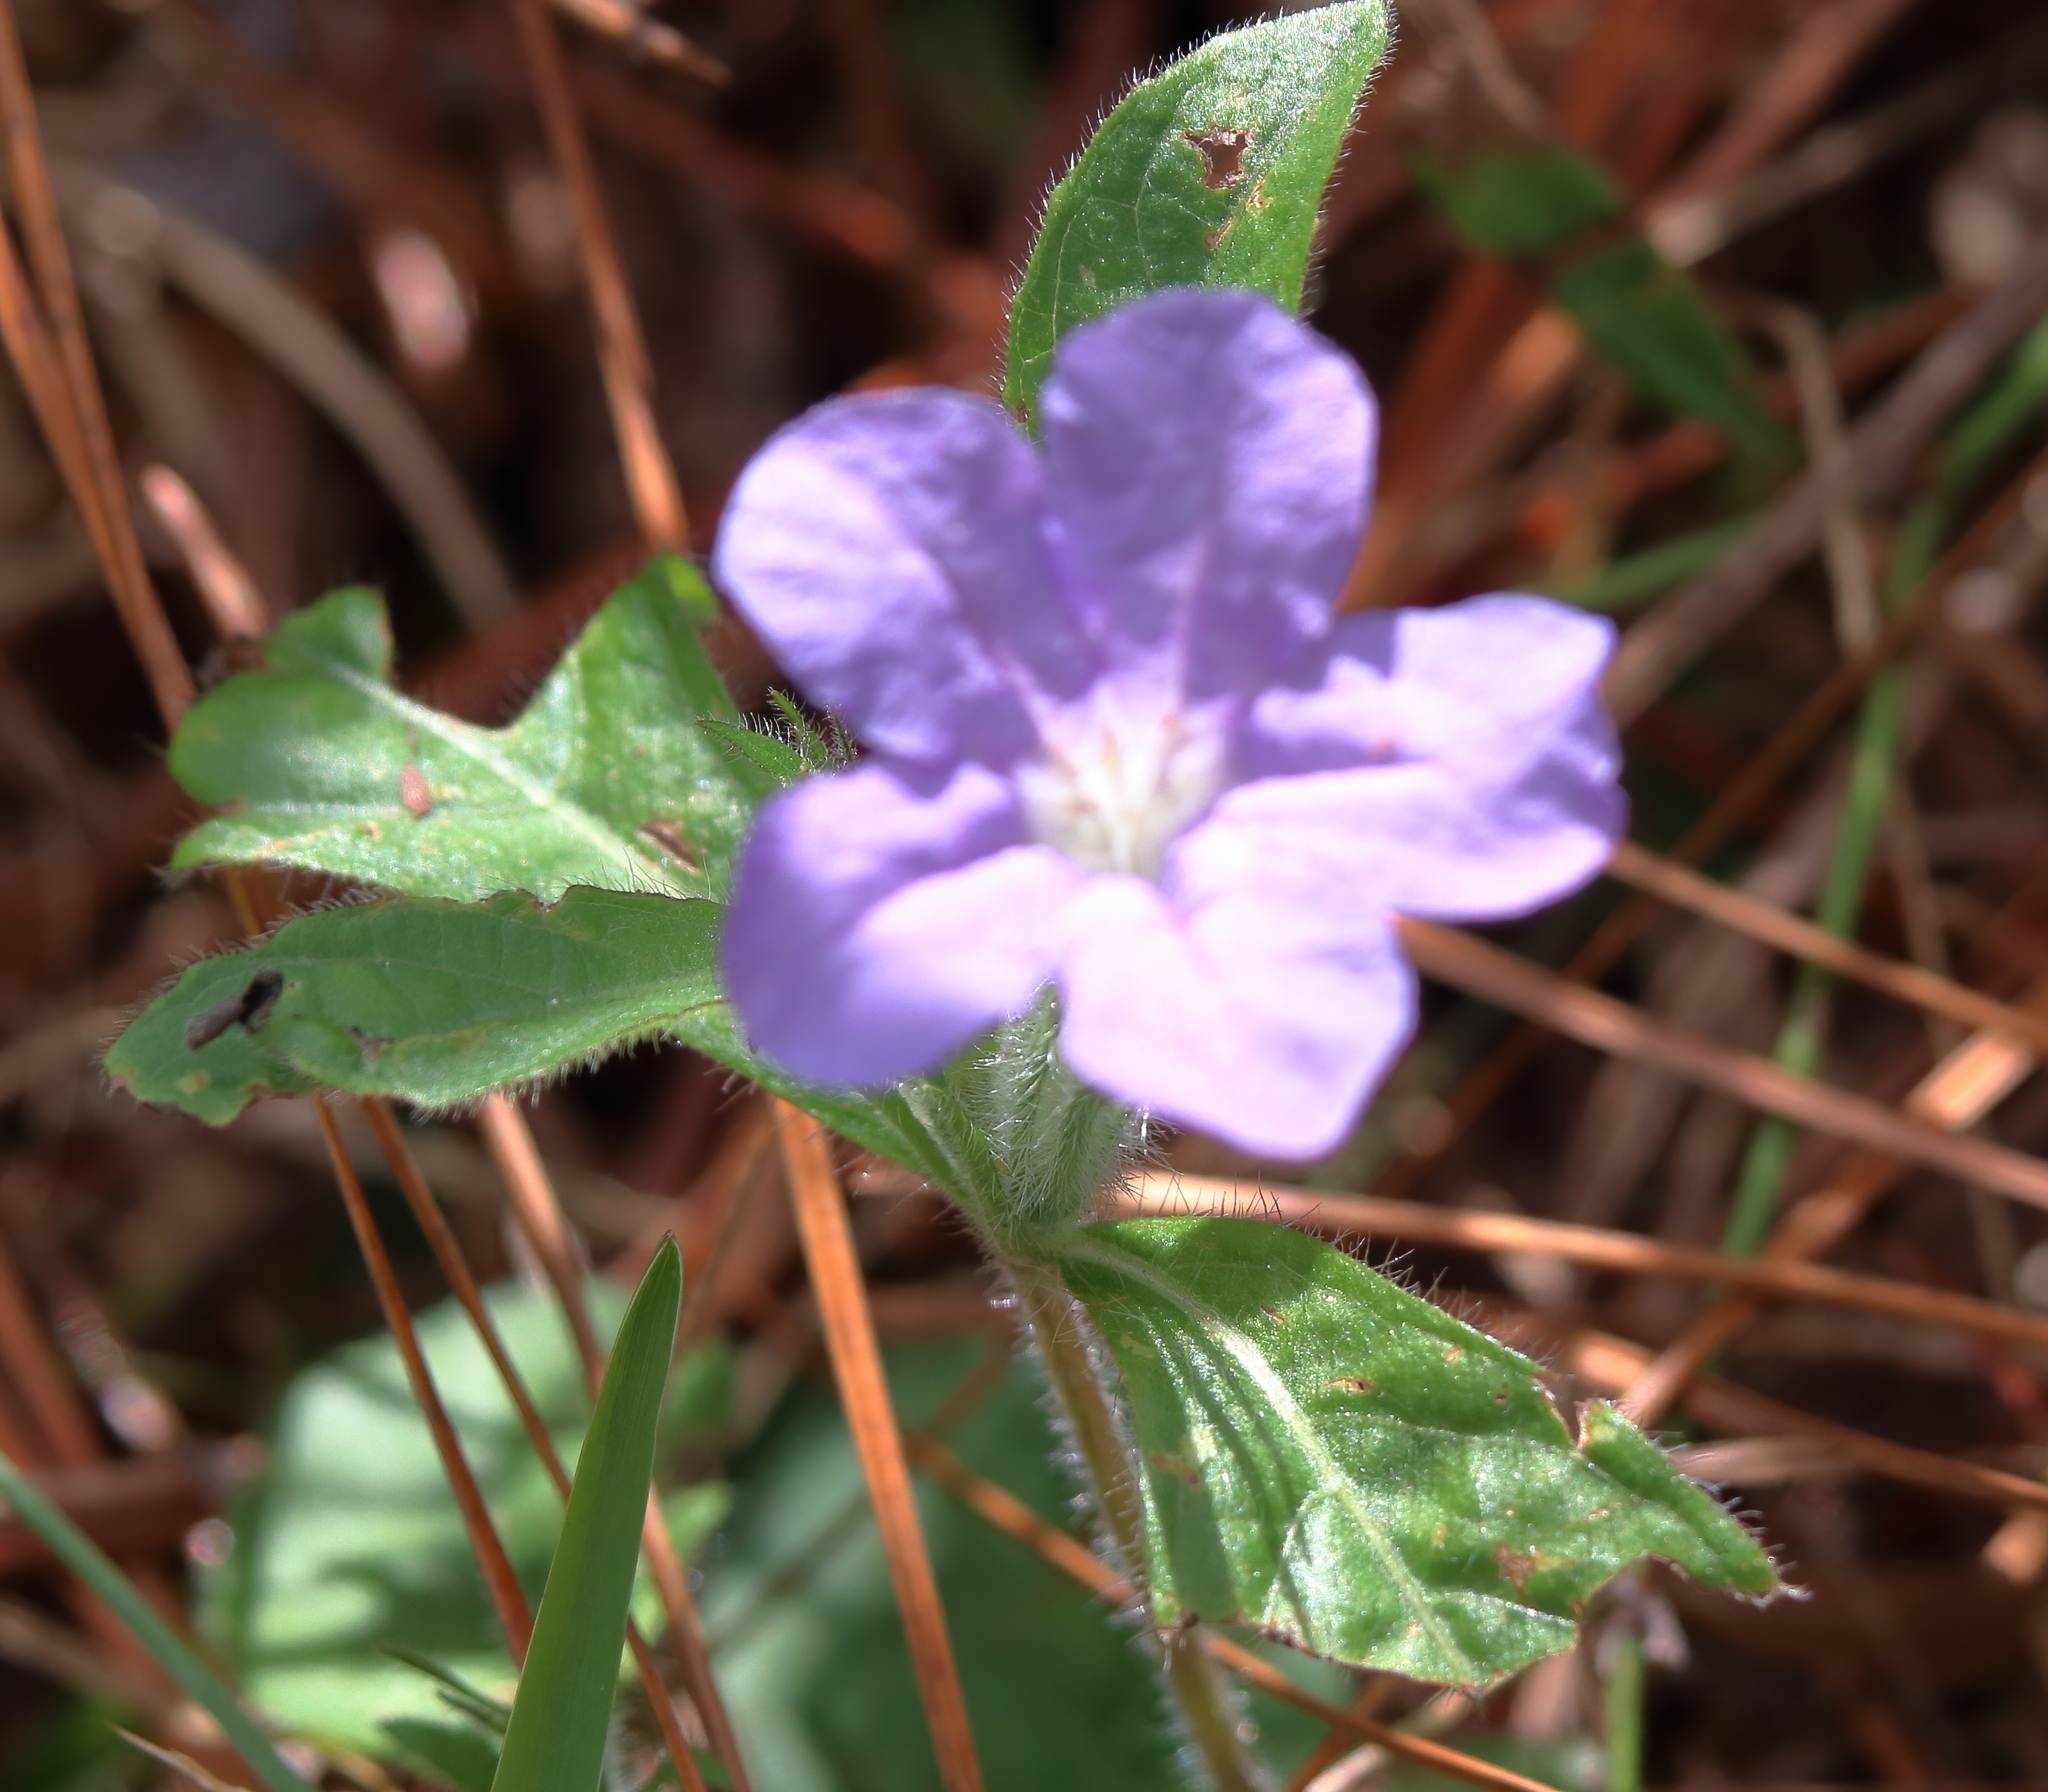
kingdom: Plantae
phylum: Tracheophyta
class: Magnoliopsida
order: Lamiales
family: Acanthaceae
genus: Ruellia
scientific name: Ruellia caroliniensis
